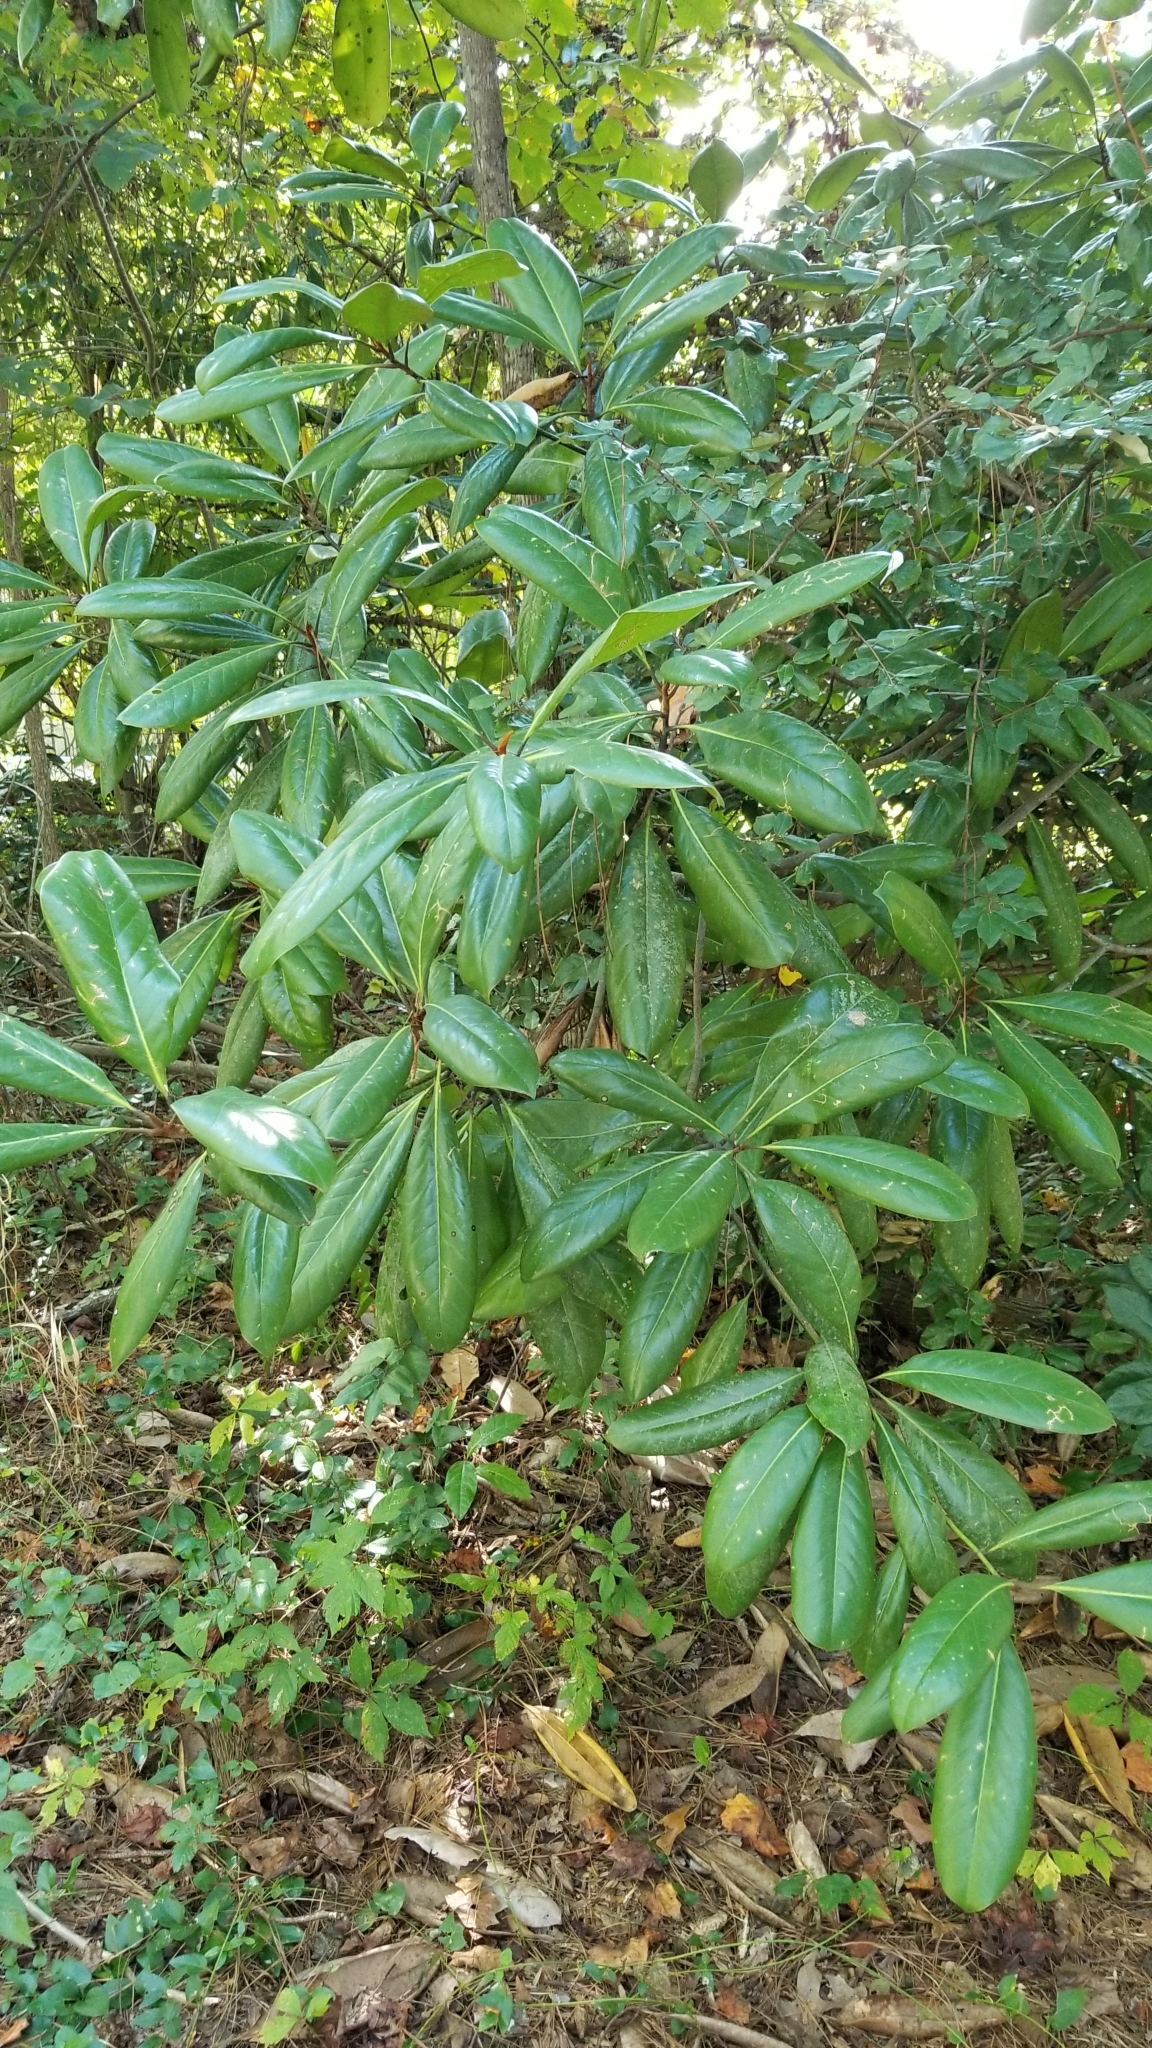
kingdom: Plantae
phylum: Tracheophyta
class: Magnoliopsida
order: Magnoliales
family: Magnoliaceae
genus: Magnolia
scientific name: Magnolia grandiflora
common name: Southern magnolia
